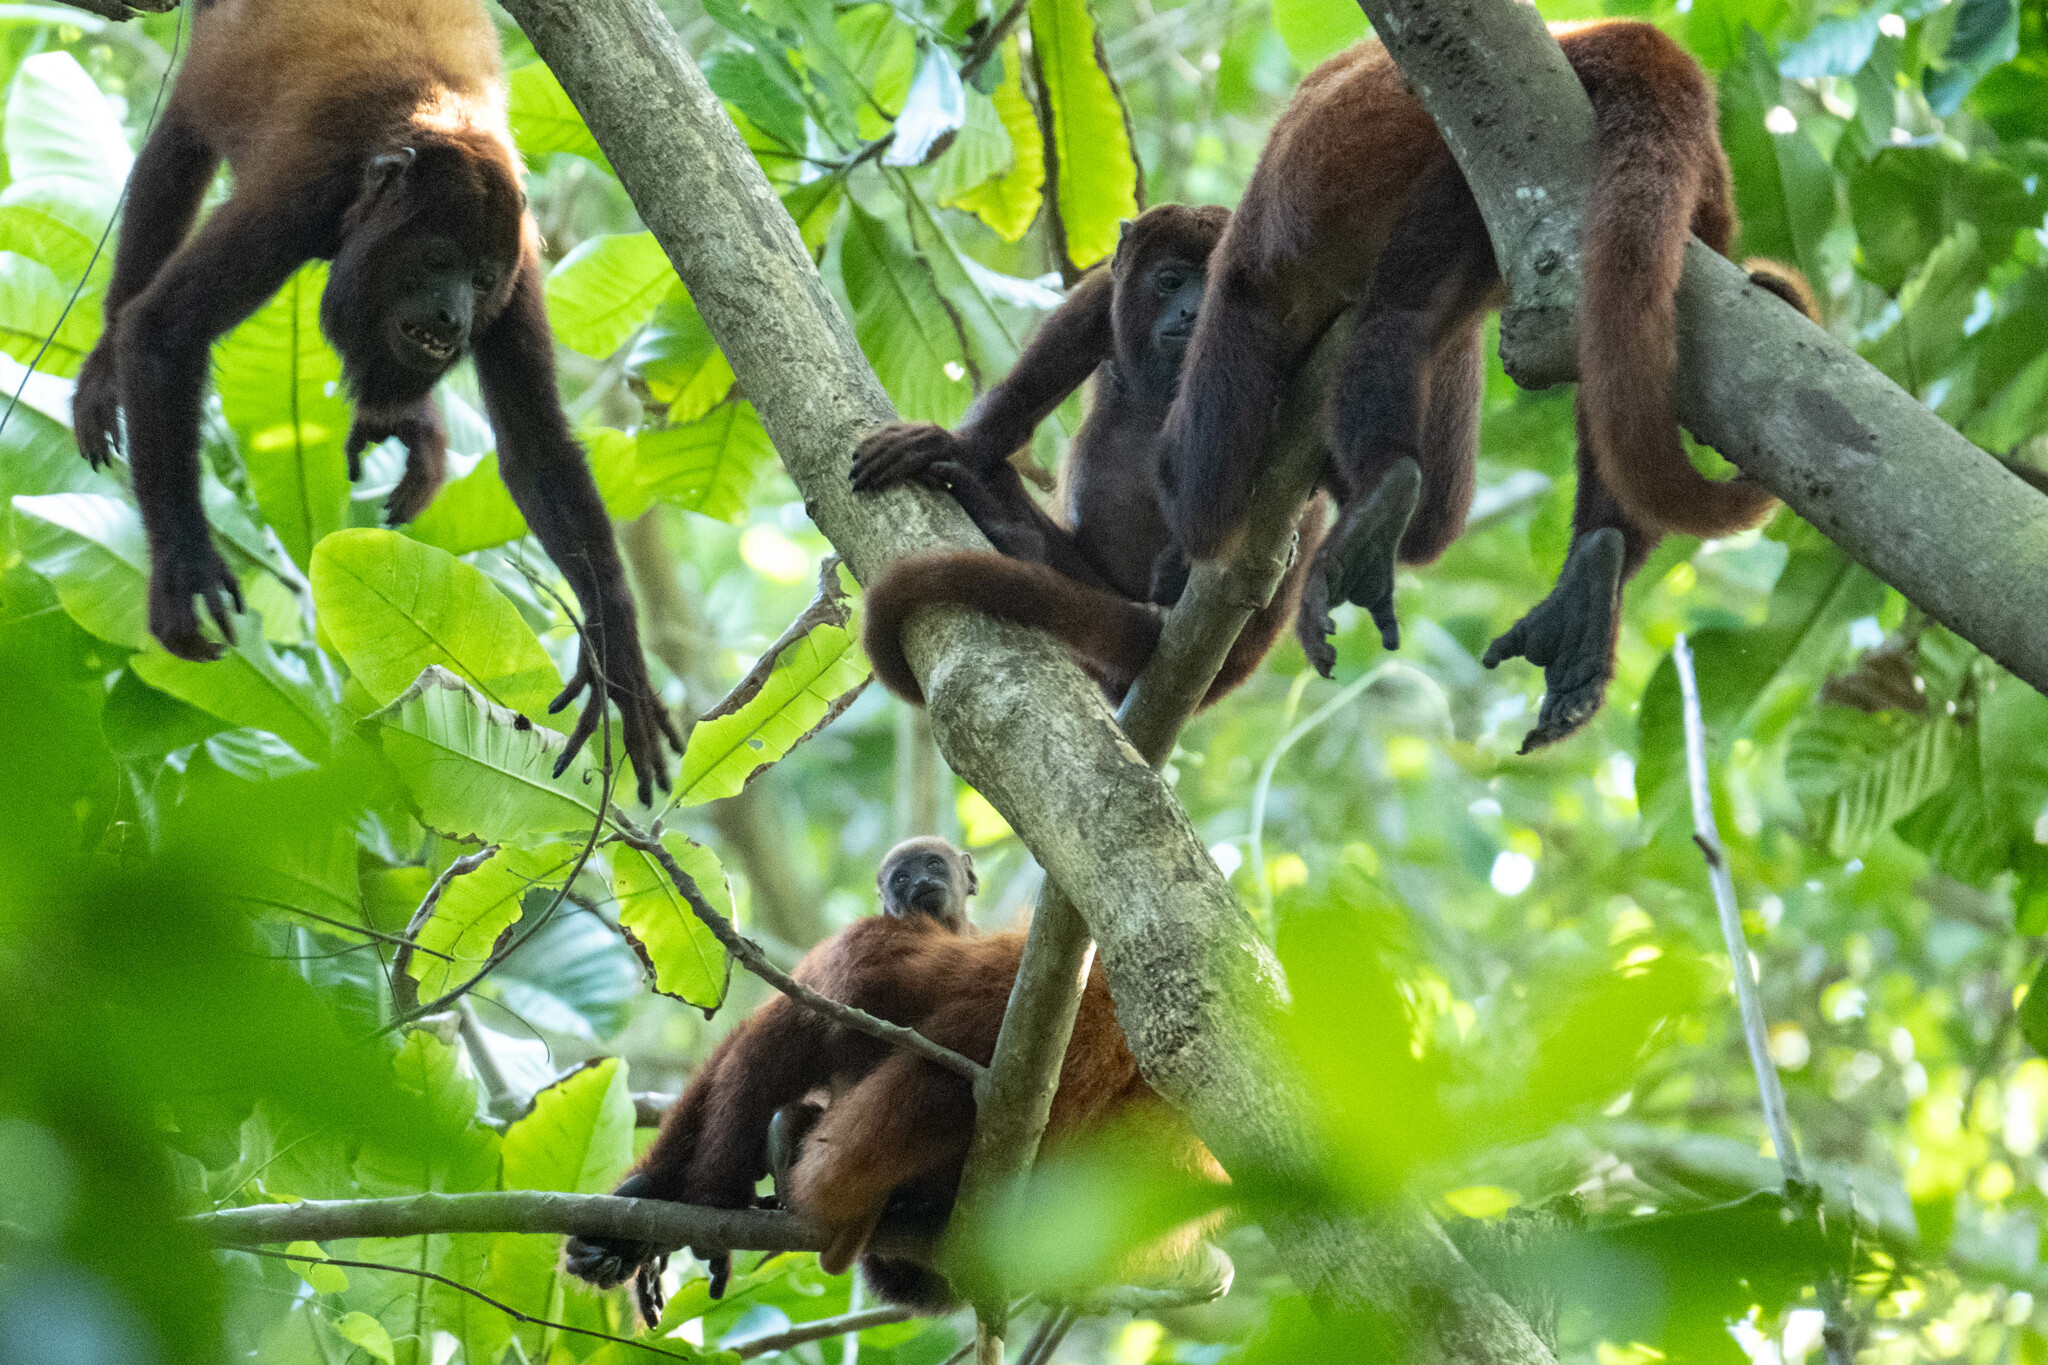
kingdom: Animalia
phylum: Chordata
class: Mammalia
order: Primates
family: Atelidae
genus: Alouatta
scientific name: Alouatta seniculus
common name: Venezuelan red howler
